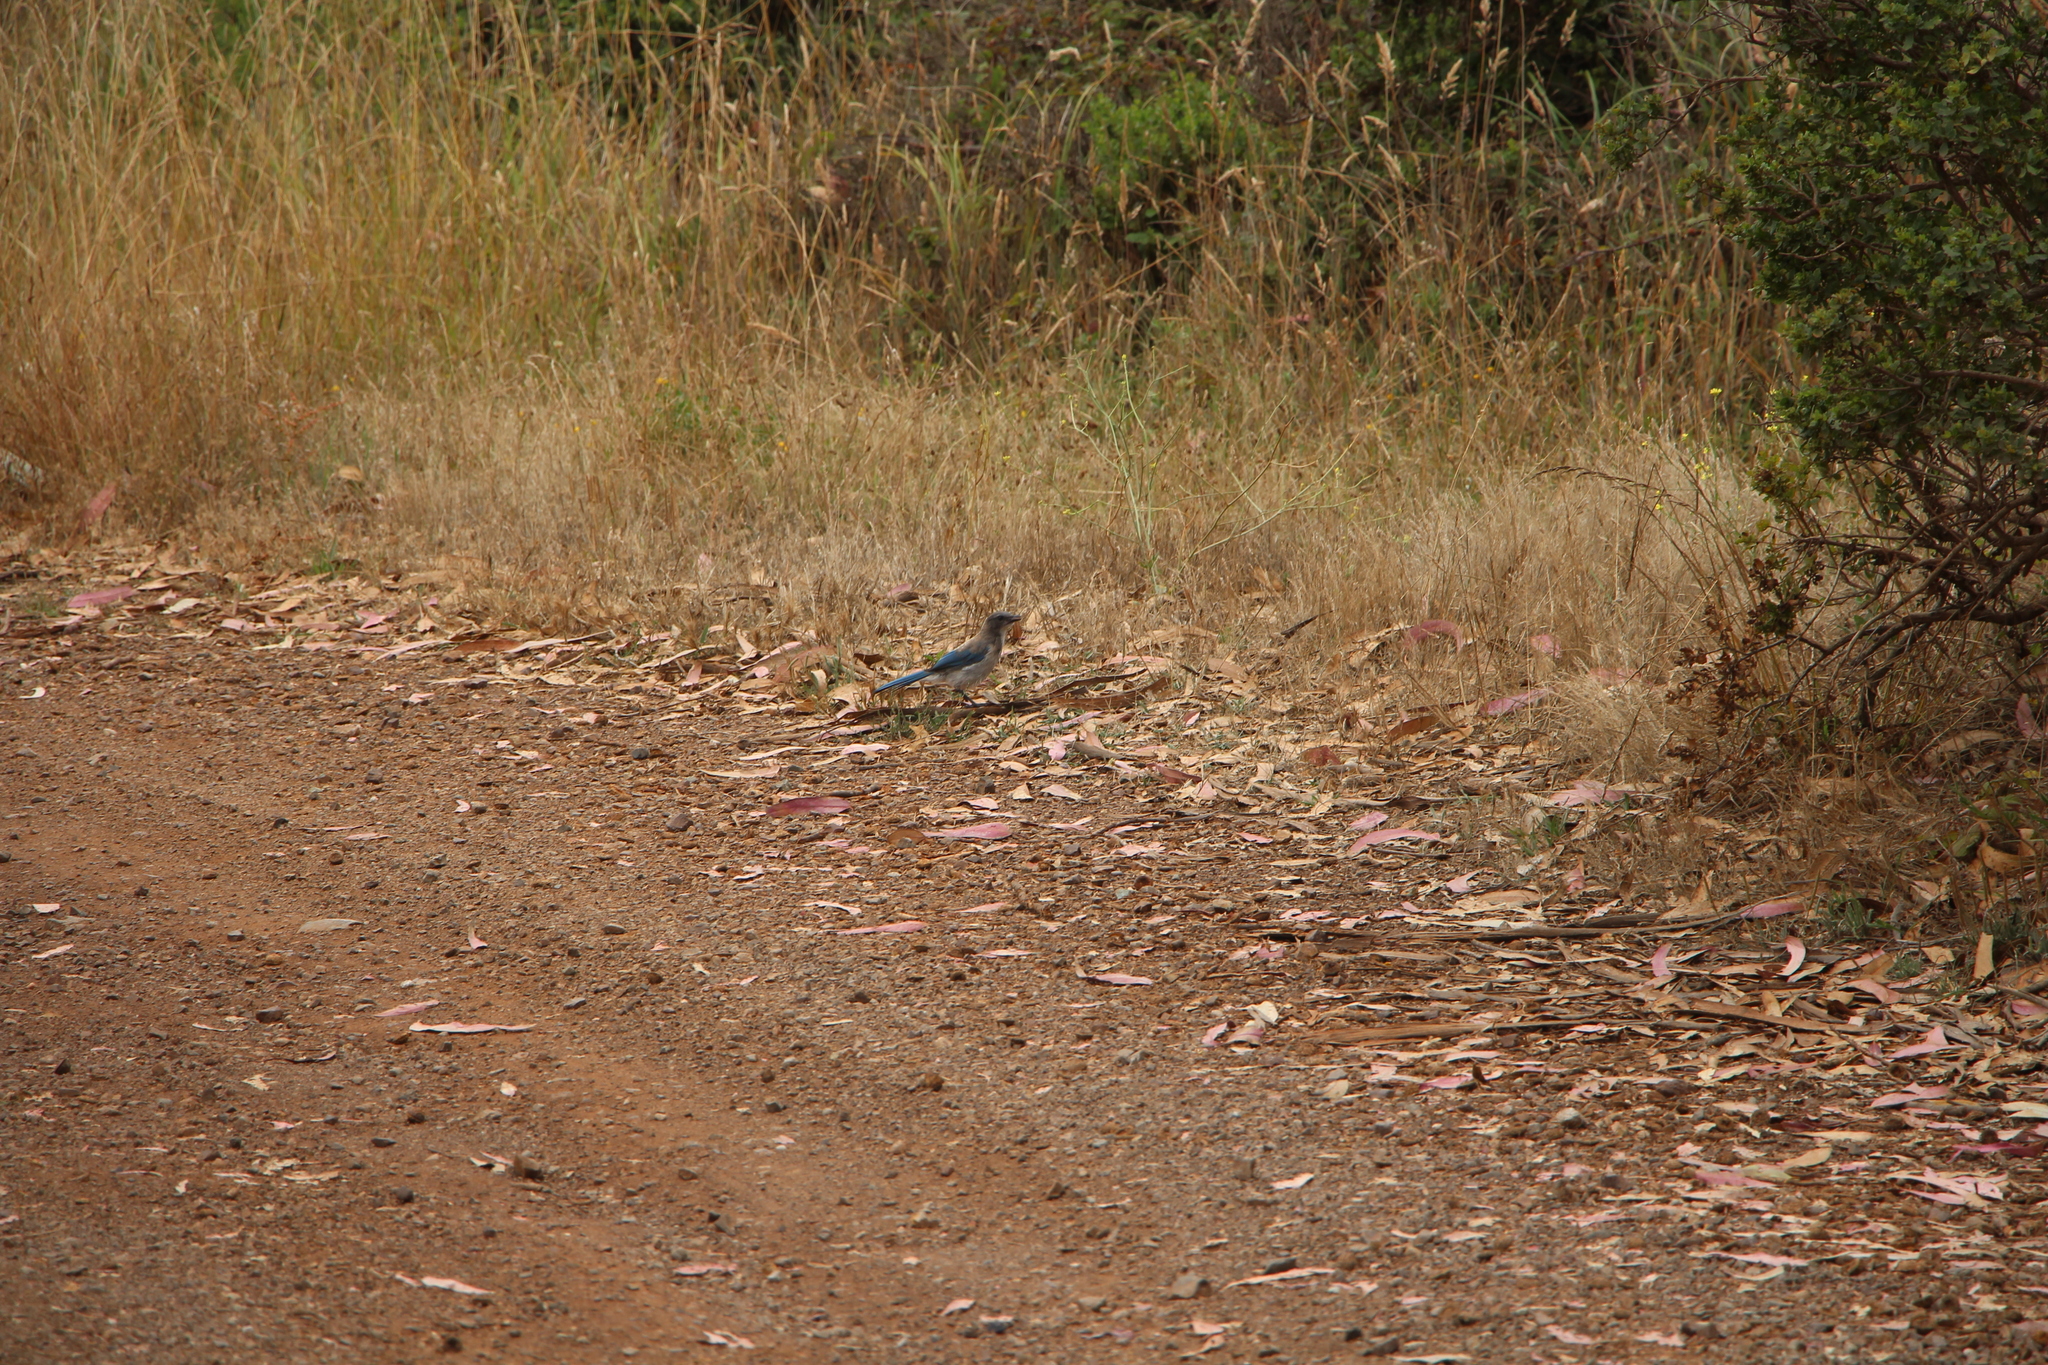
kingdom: Animalia
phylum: Chordata
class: Aves
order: Passeriformes
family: Corvidae
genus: Aphelocoma
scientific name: Aphelocoma californica
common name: California scrub-jay
